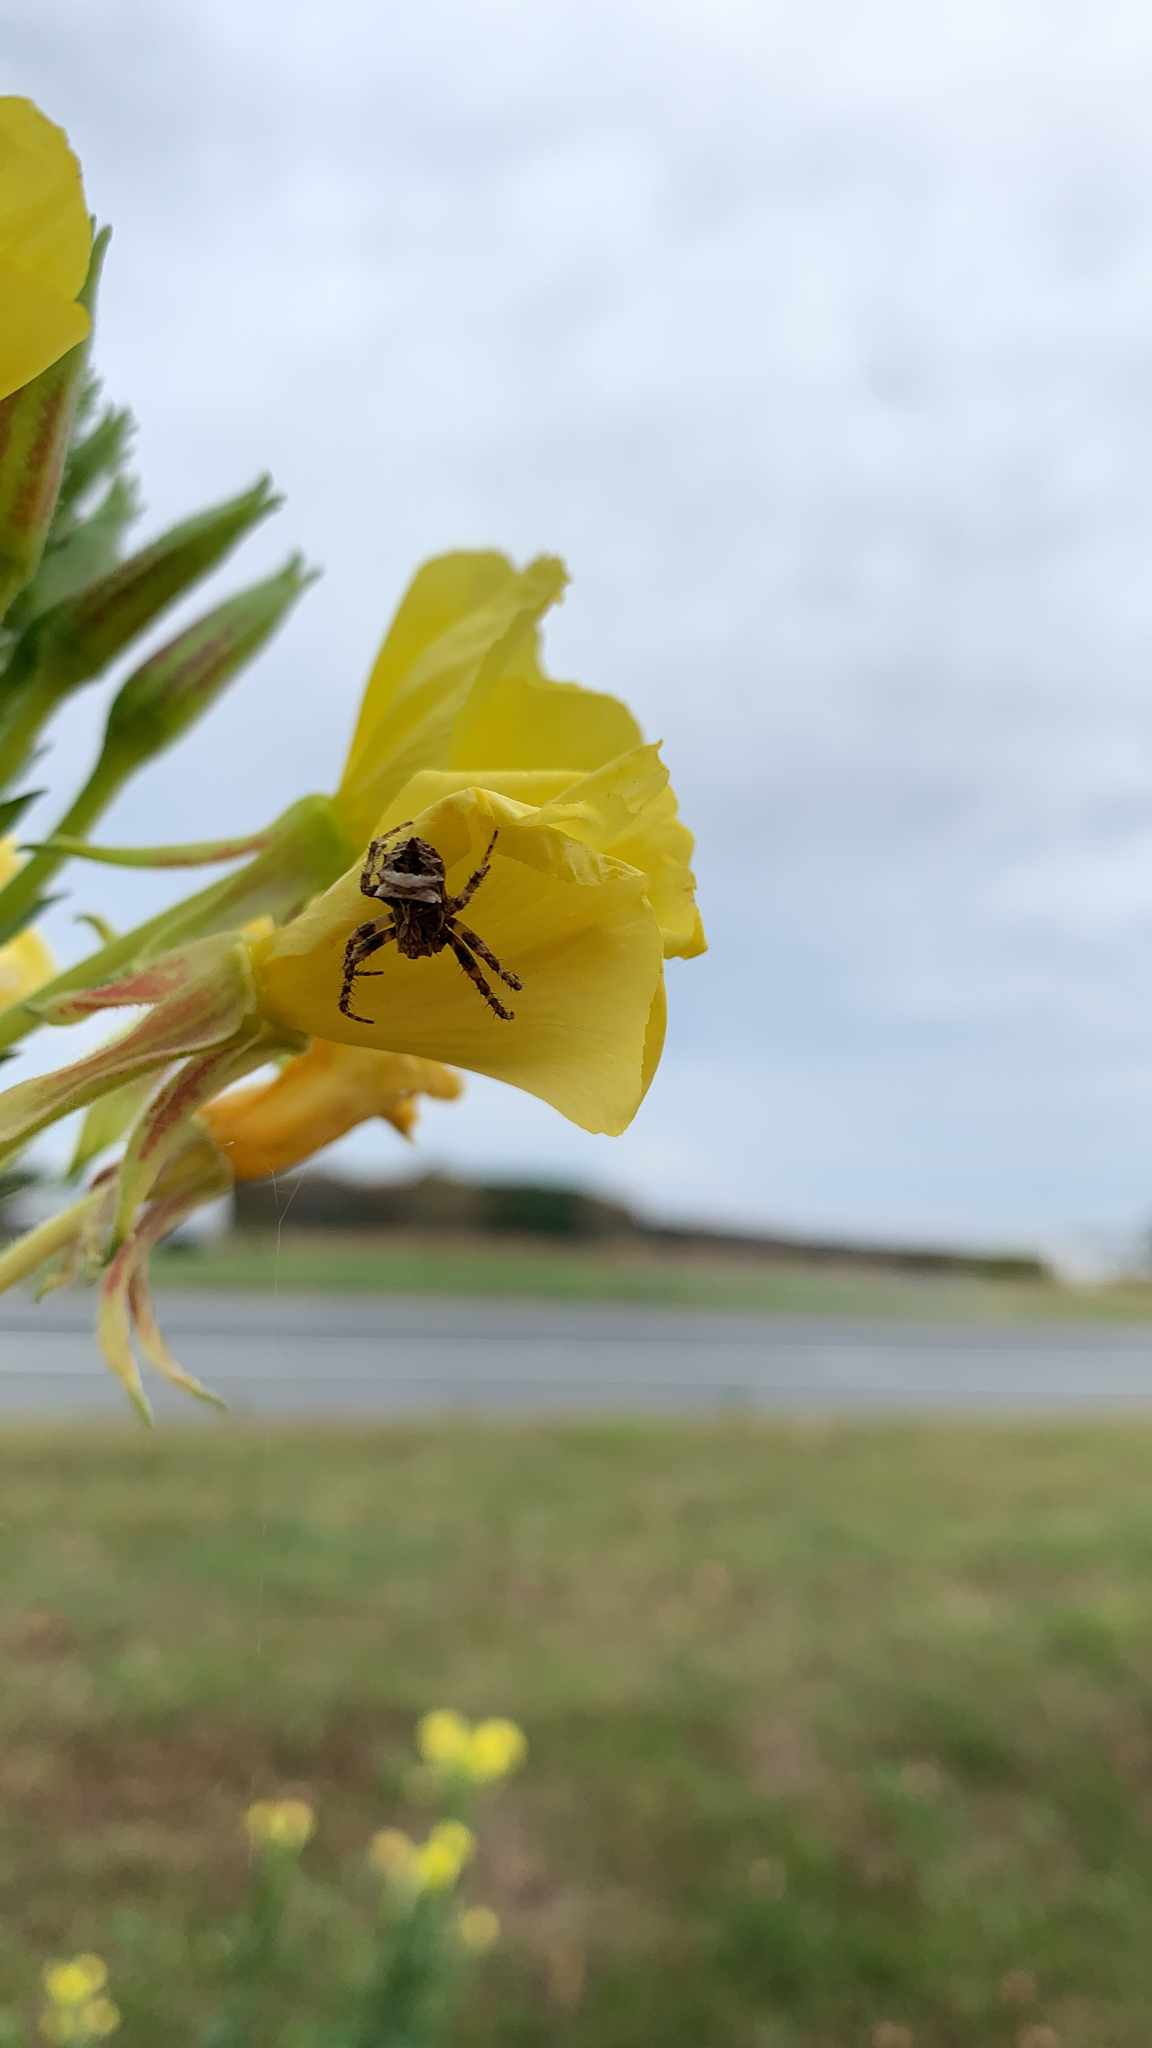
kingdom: Animalia
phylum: Arthropoda
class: Arachnida
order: Araneae
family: Araneidae
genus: Acanthepeira
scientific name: Acanthepeira stellata
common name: Starbellied orbweaver
